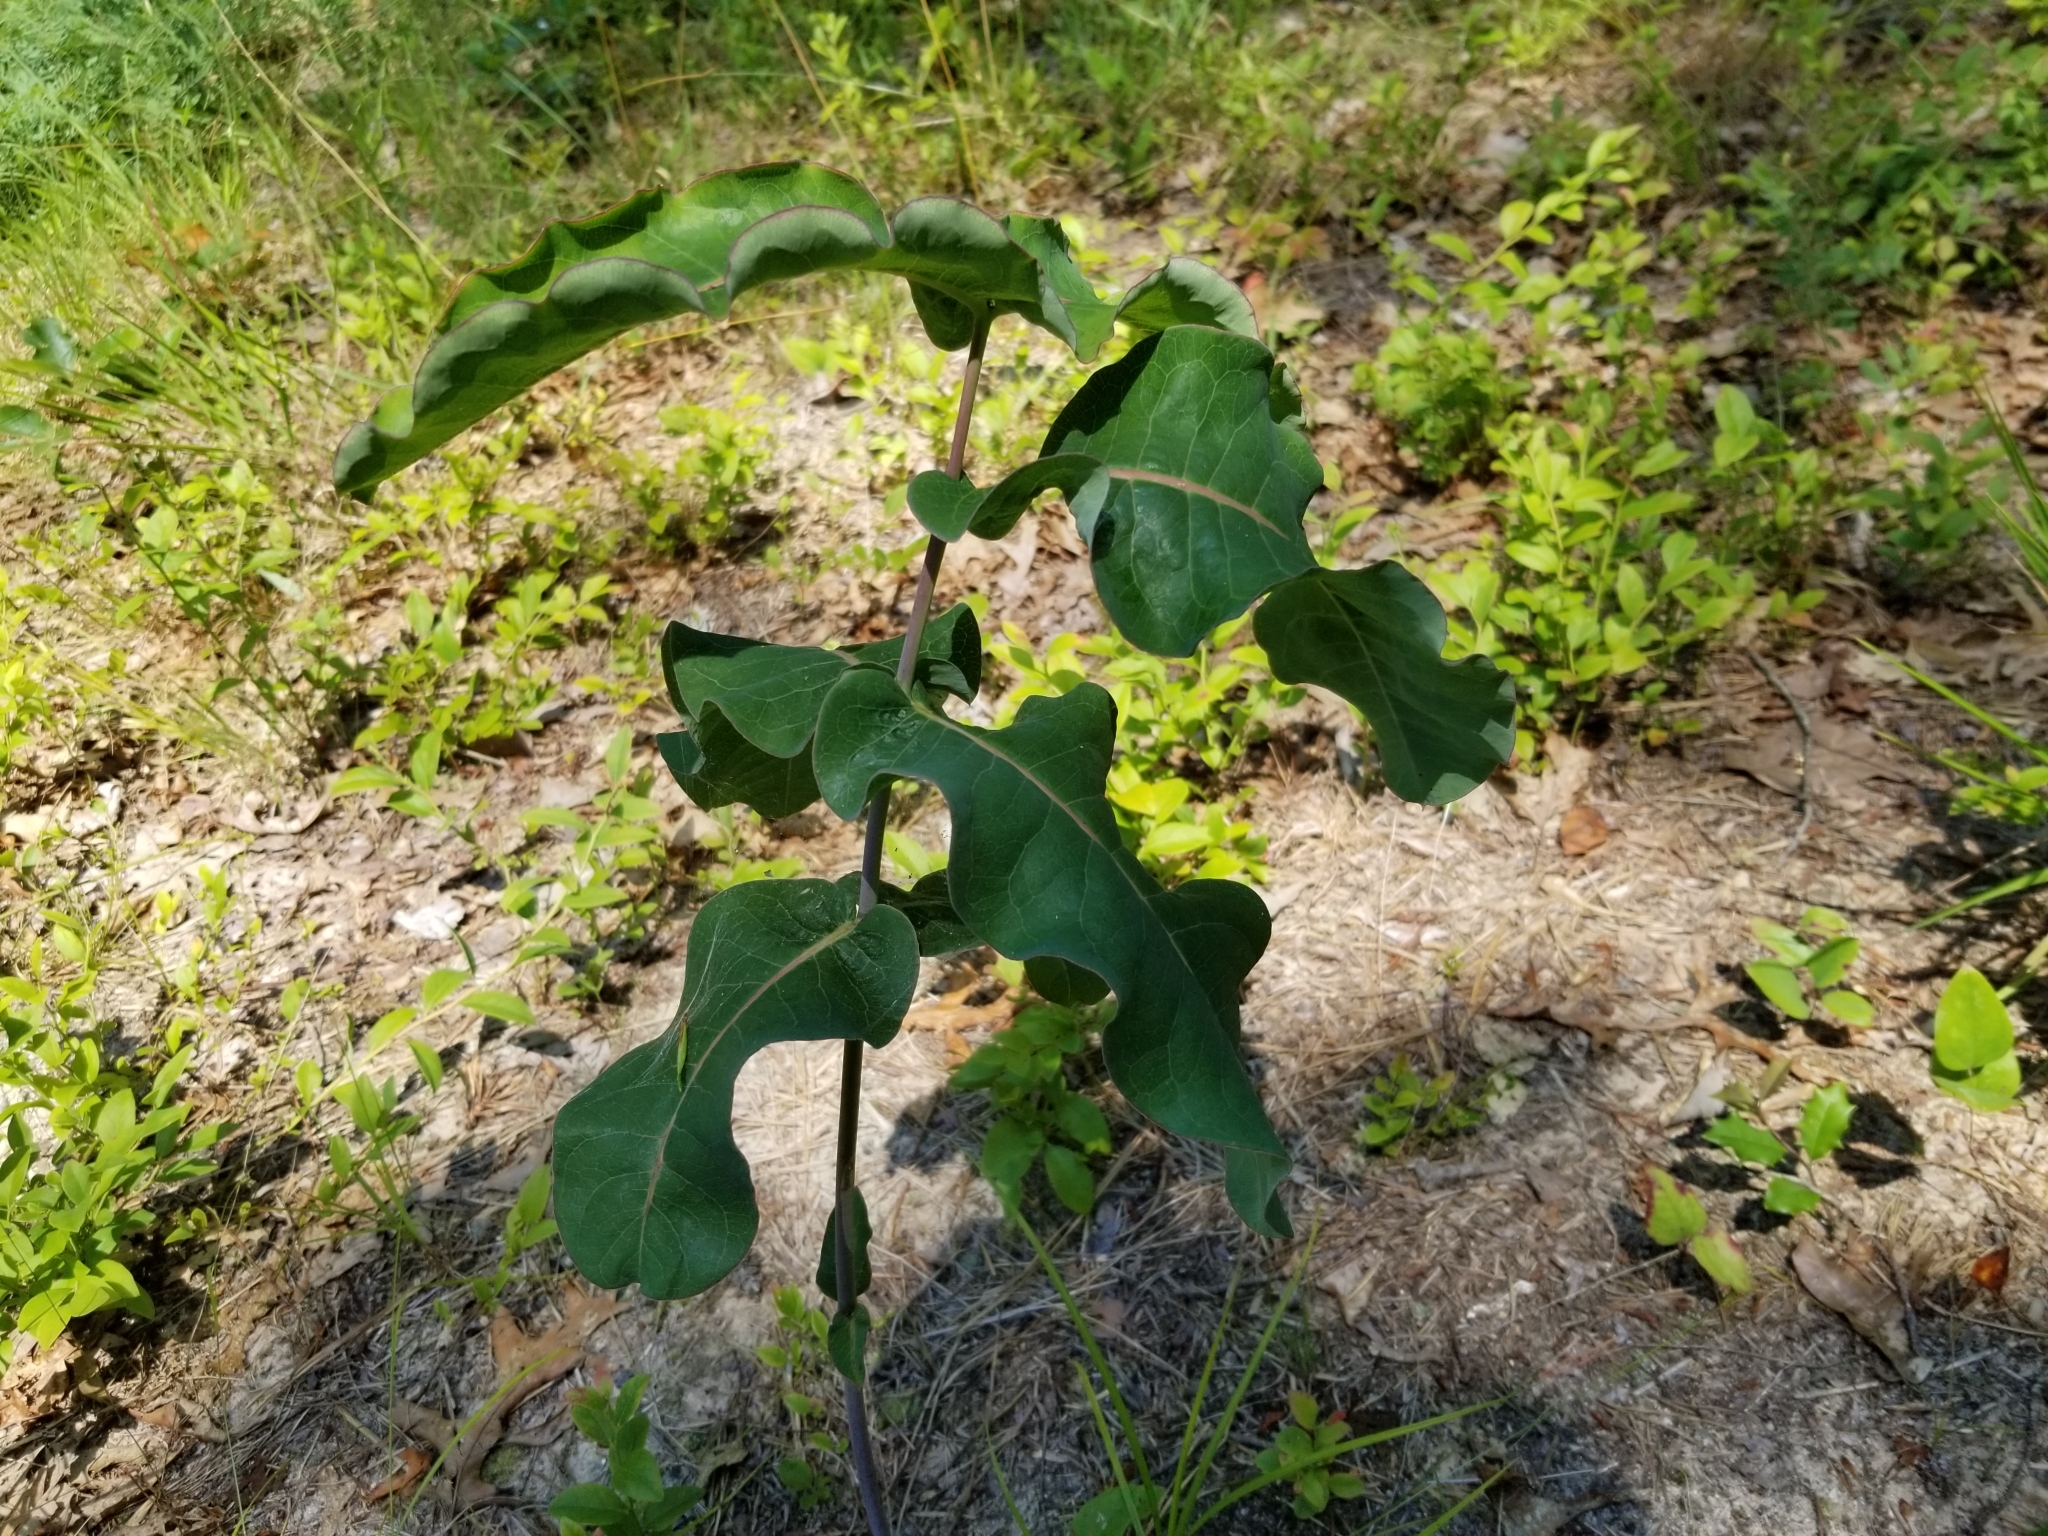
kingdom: Plantae
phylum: Tracheophyta
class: Magnoliopsida
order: Gentianales
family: Apocynaceae
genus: Asclepias
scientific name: Asclepias amplexicaulis
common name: Blunt-leaf milkweed
